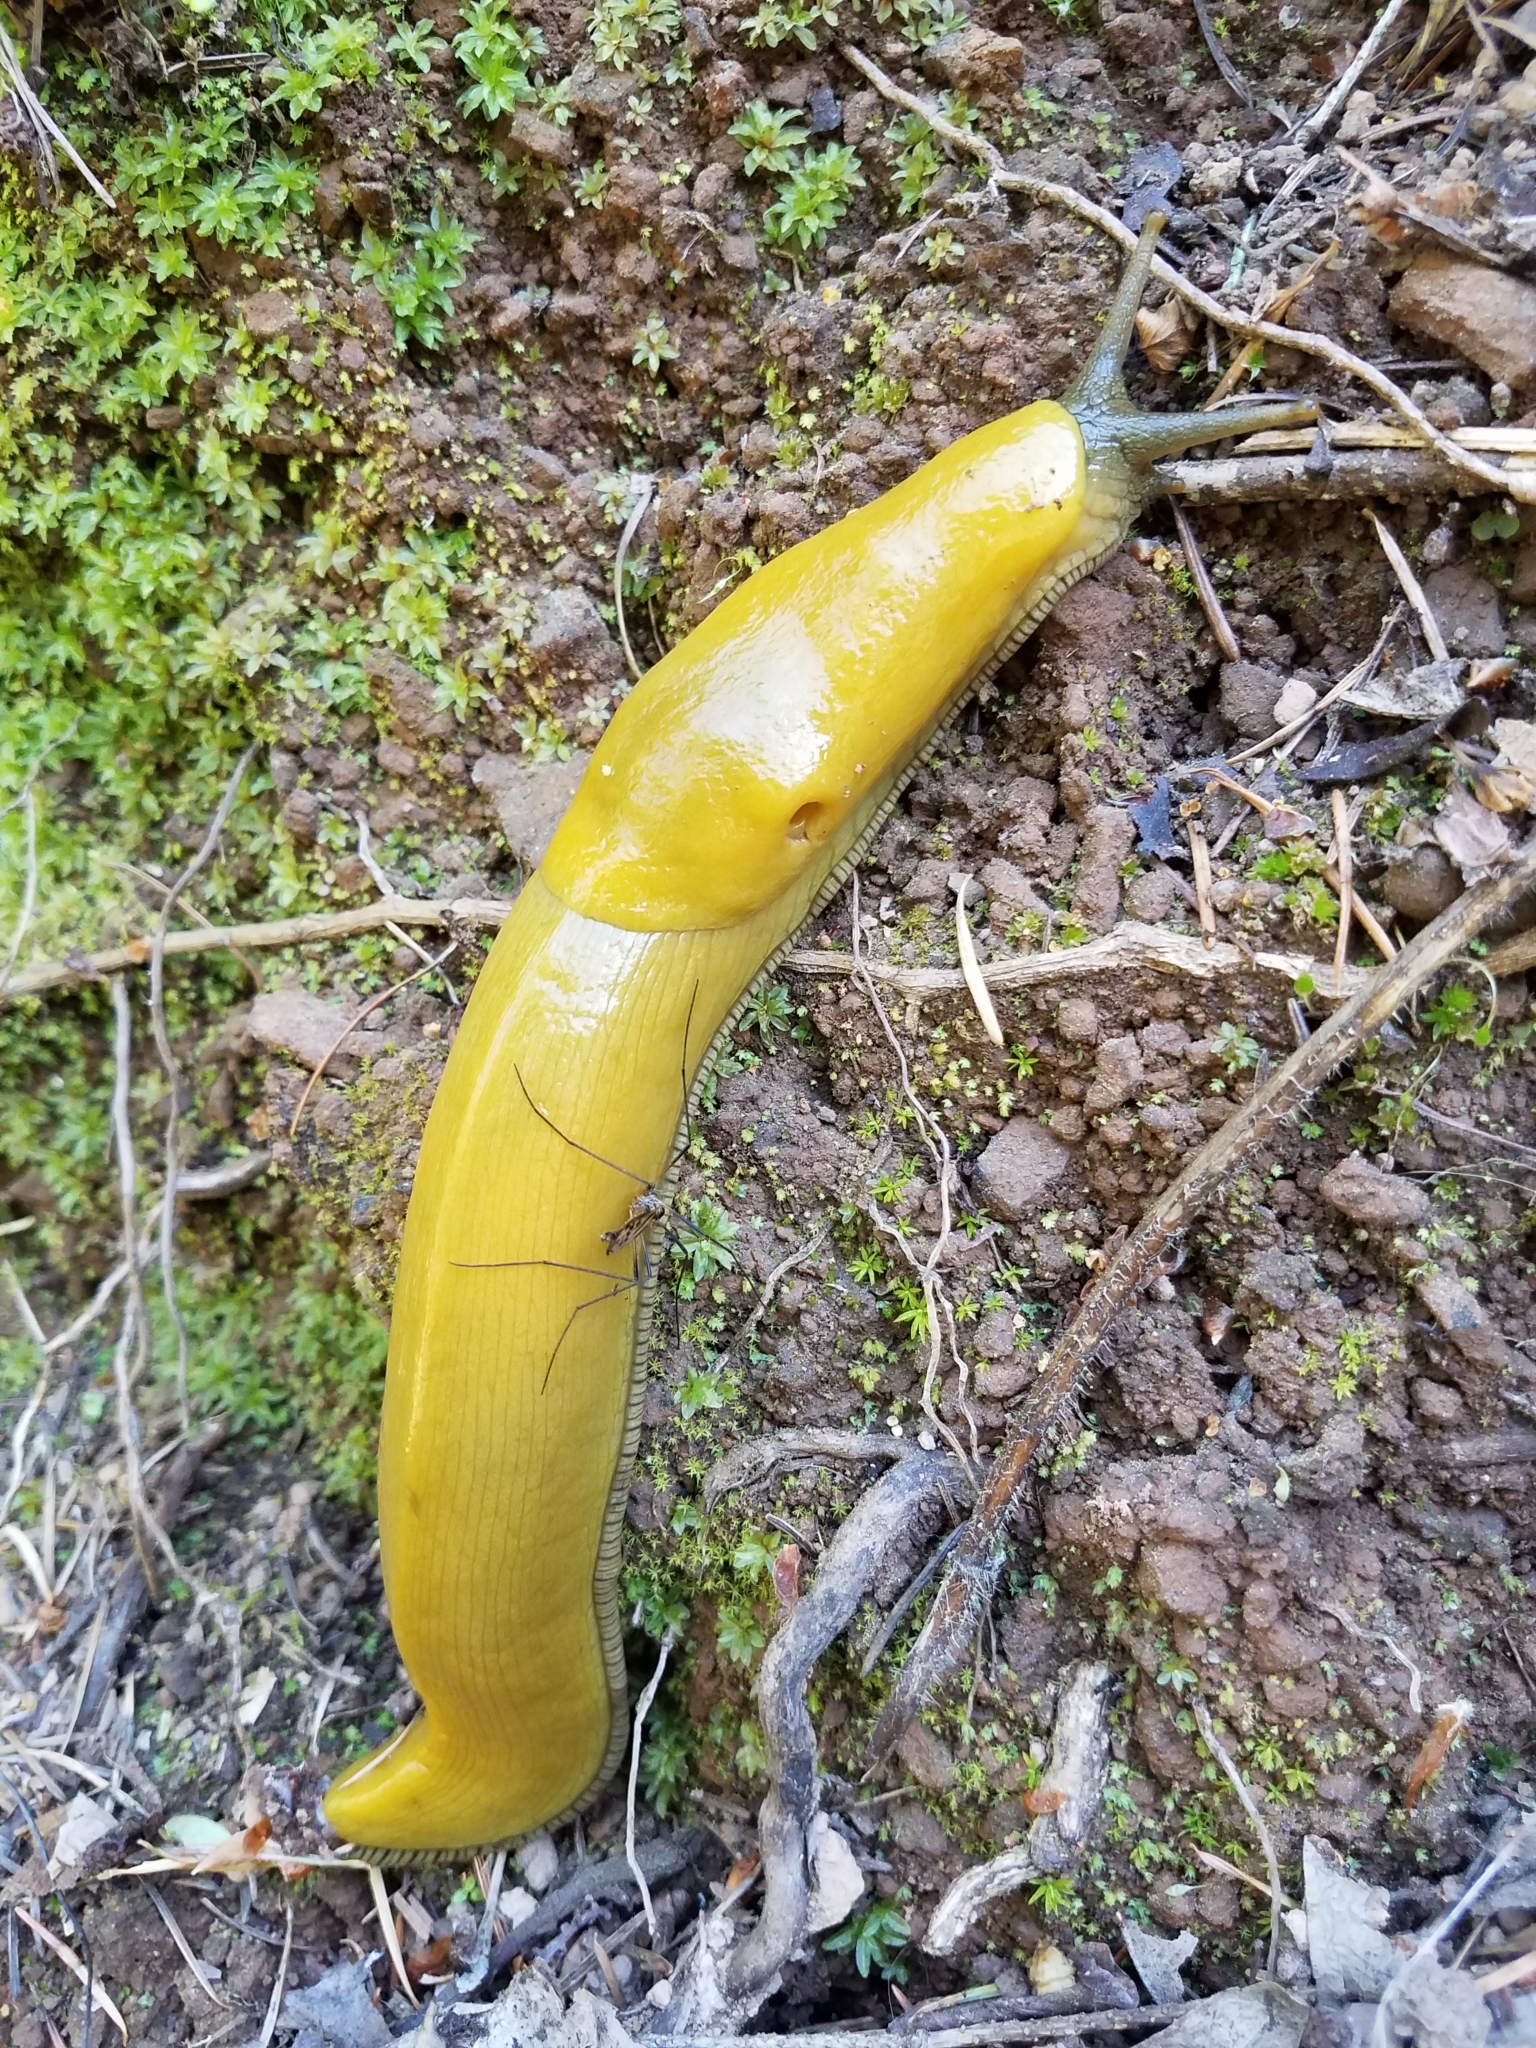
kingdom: Animalia
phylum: Mollusca
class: Gastropoda
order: Stylommatophora
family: Ariolimacidae
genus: Ariolimax
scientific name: Ariolimax californicus
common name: California banana slug
